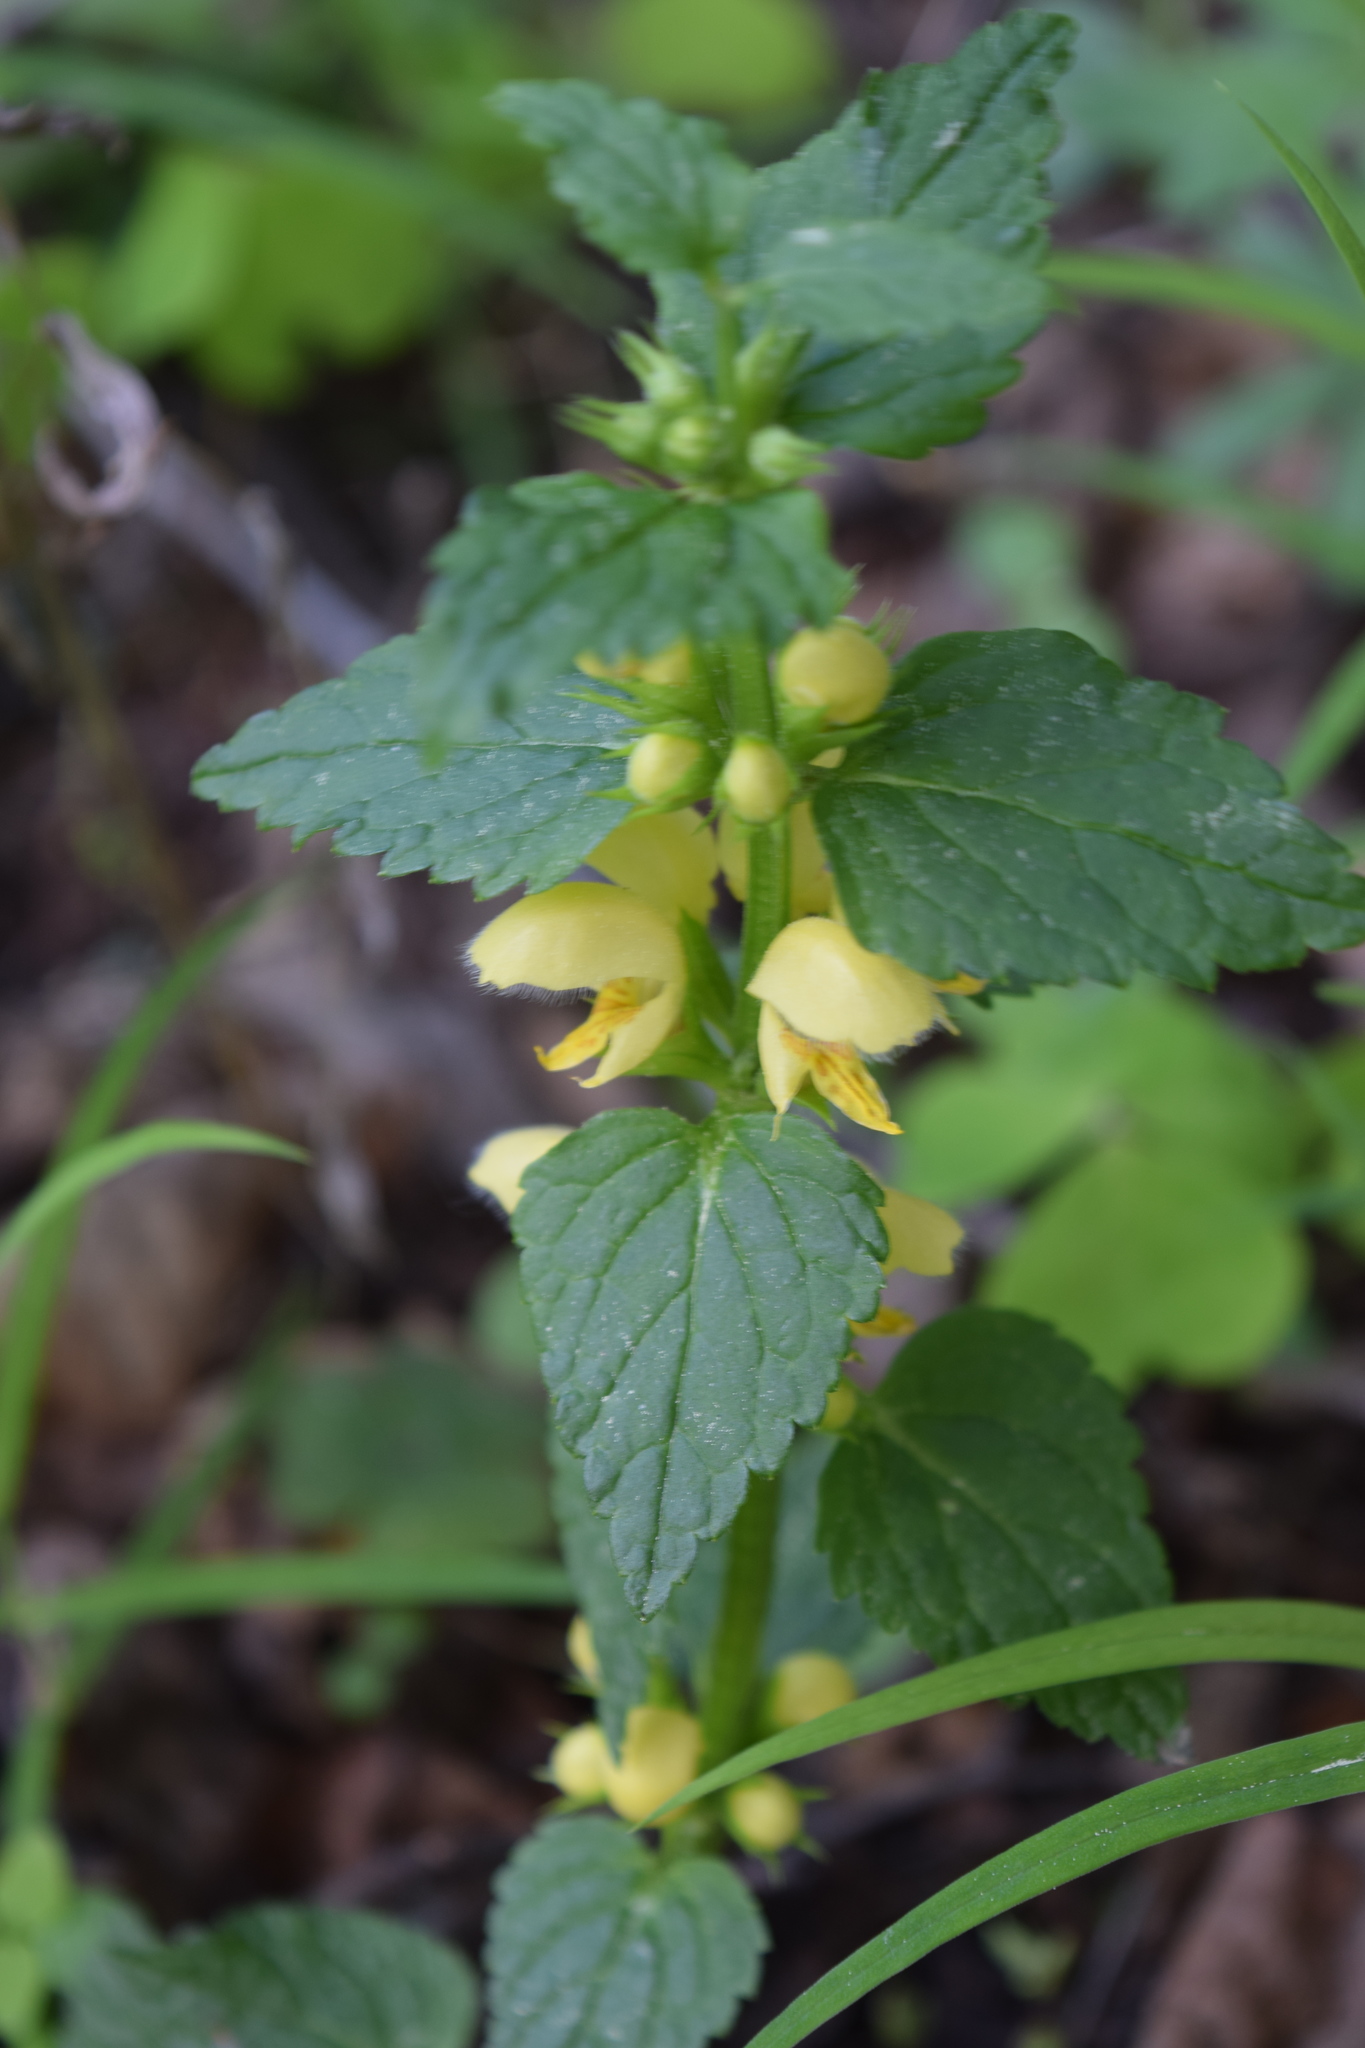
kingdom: Plantae
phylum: Tracheophyta
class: Magnoliopsida
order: Lamiales
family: Lamiaceae
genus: Lamium
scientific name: Lamium galeobdolon
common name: Yellow archangel
